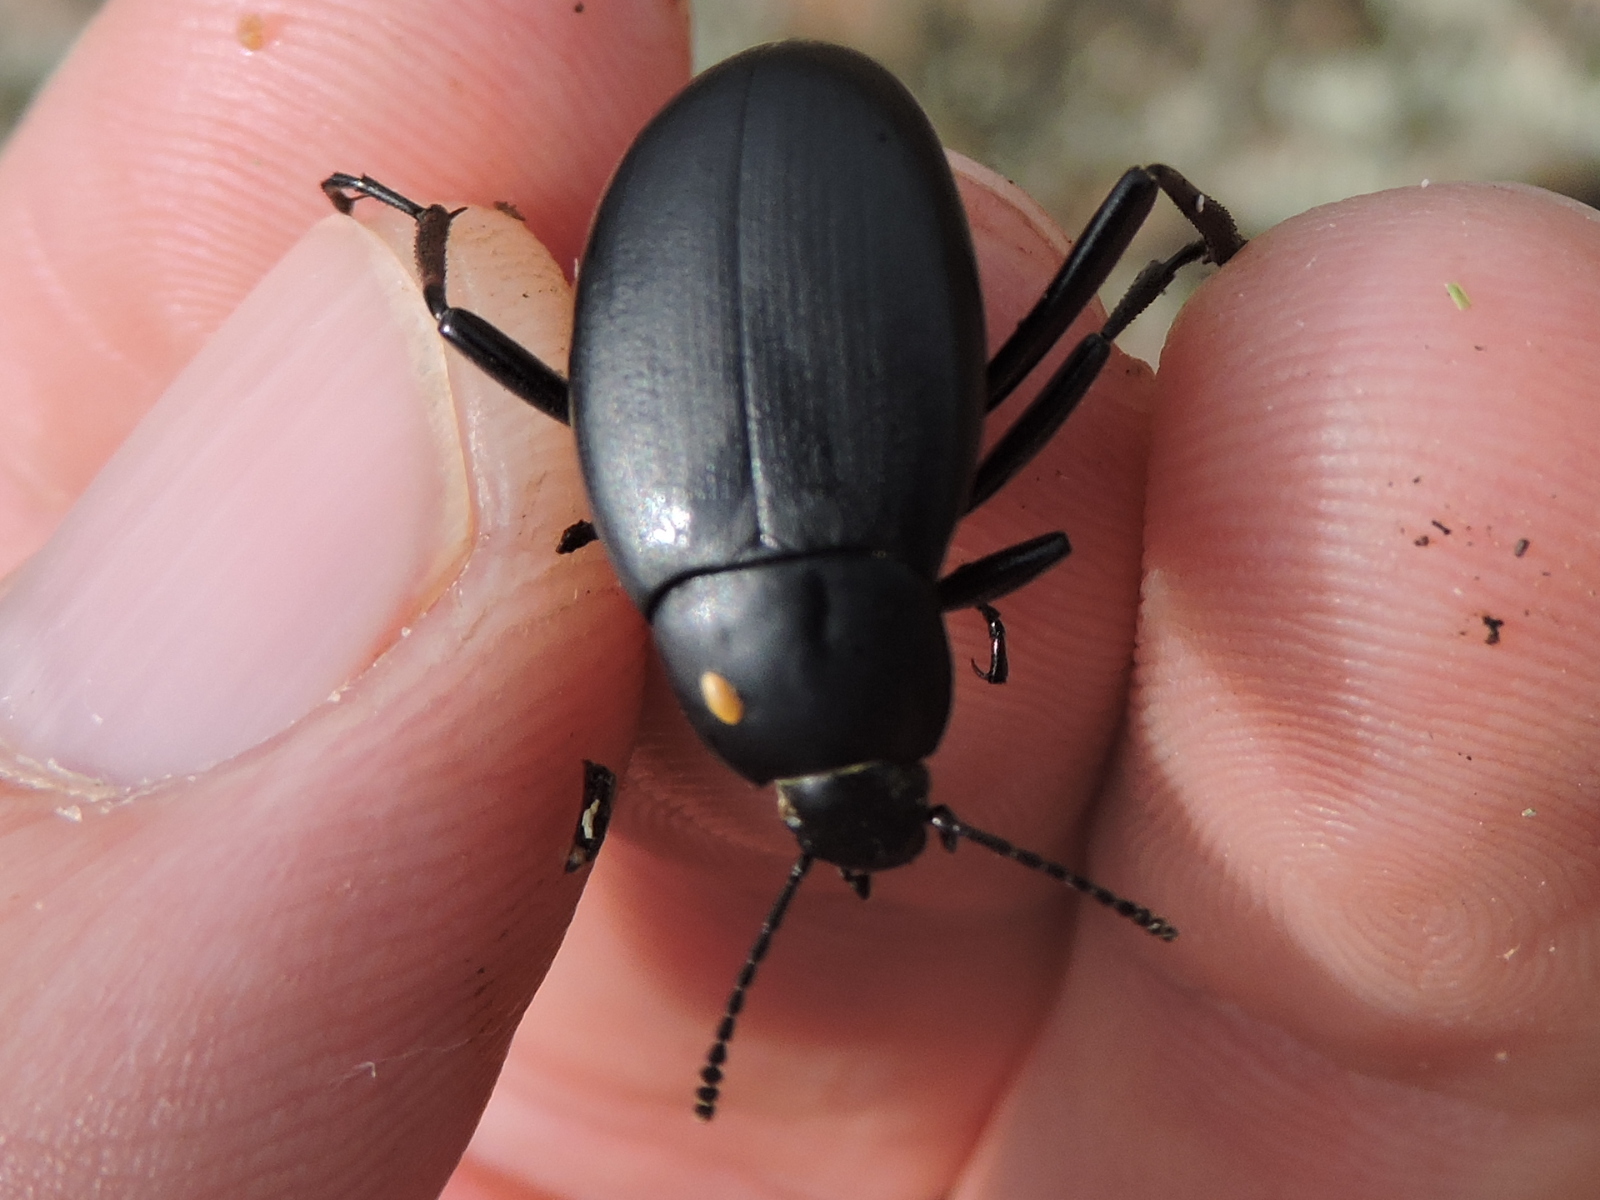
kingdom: Animalia
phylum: Arthropoda
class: Insecta
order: Coleoptera
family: Tenebrionidae
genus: Eleodes
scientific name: Eleodes fusiformis
